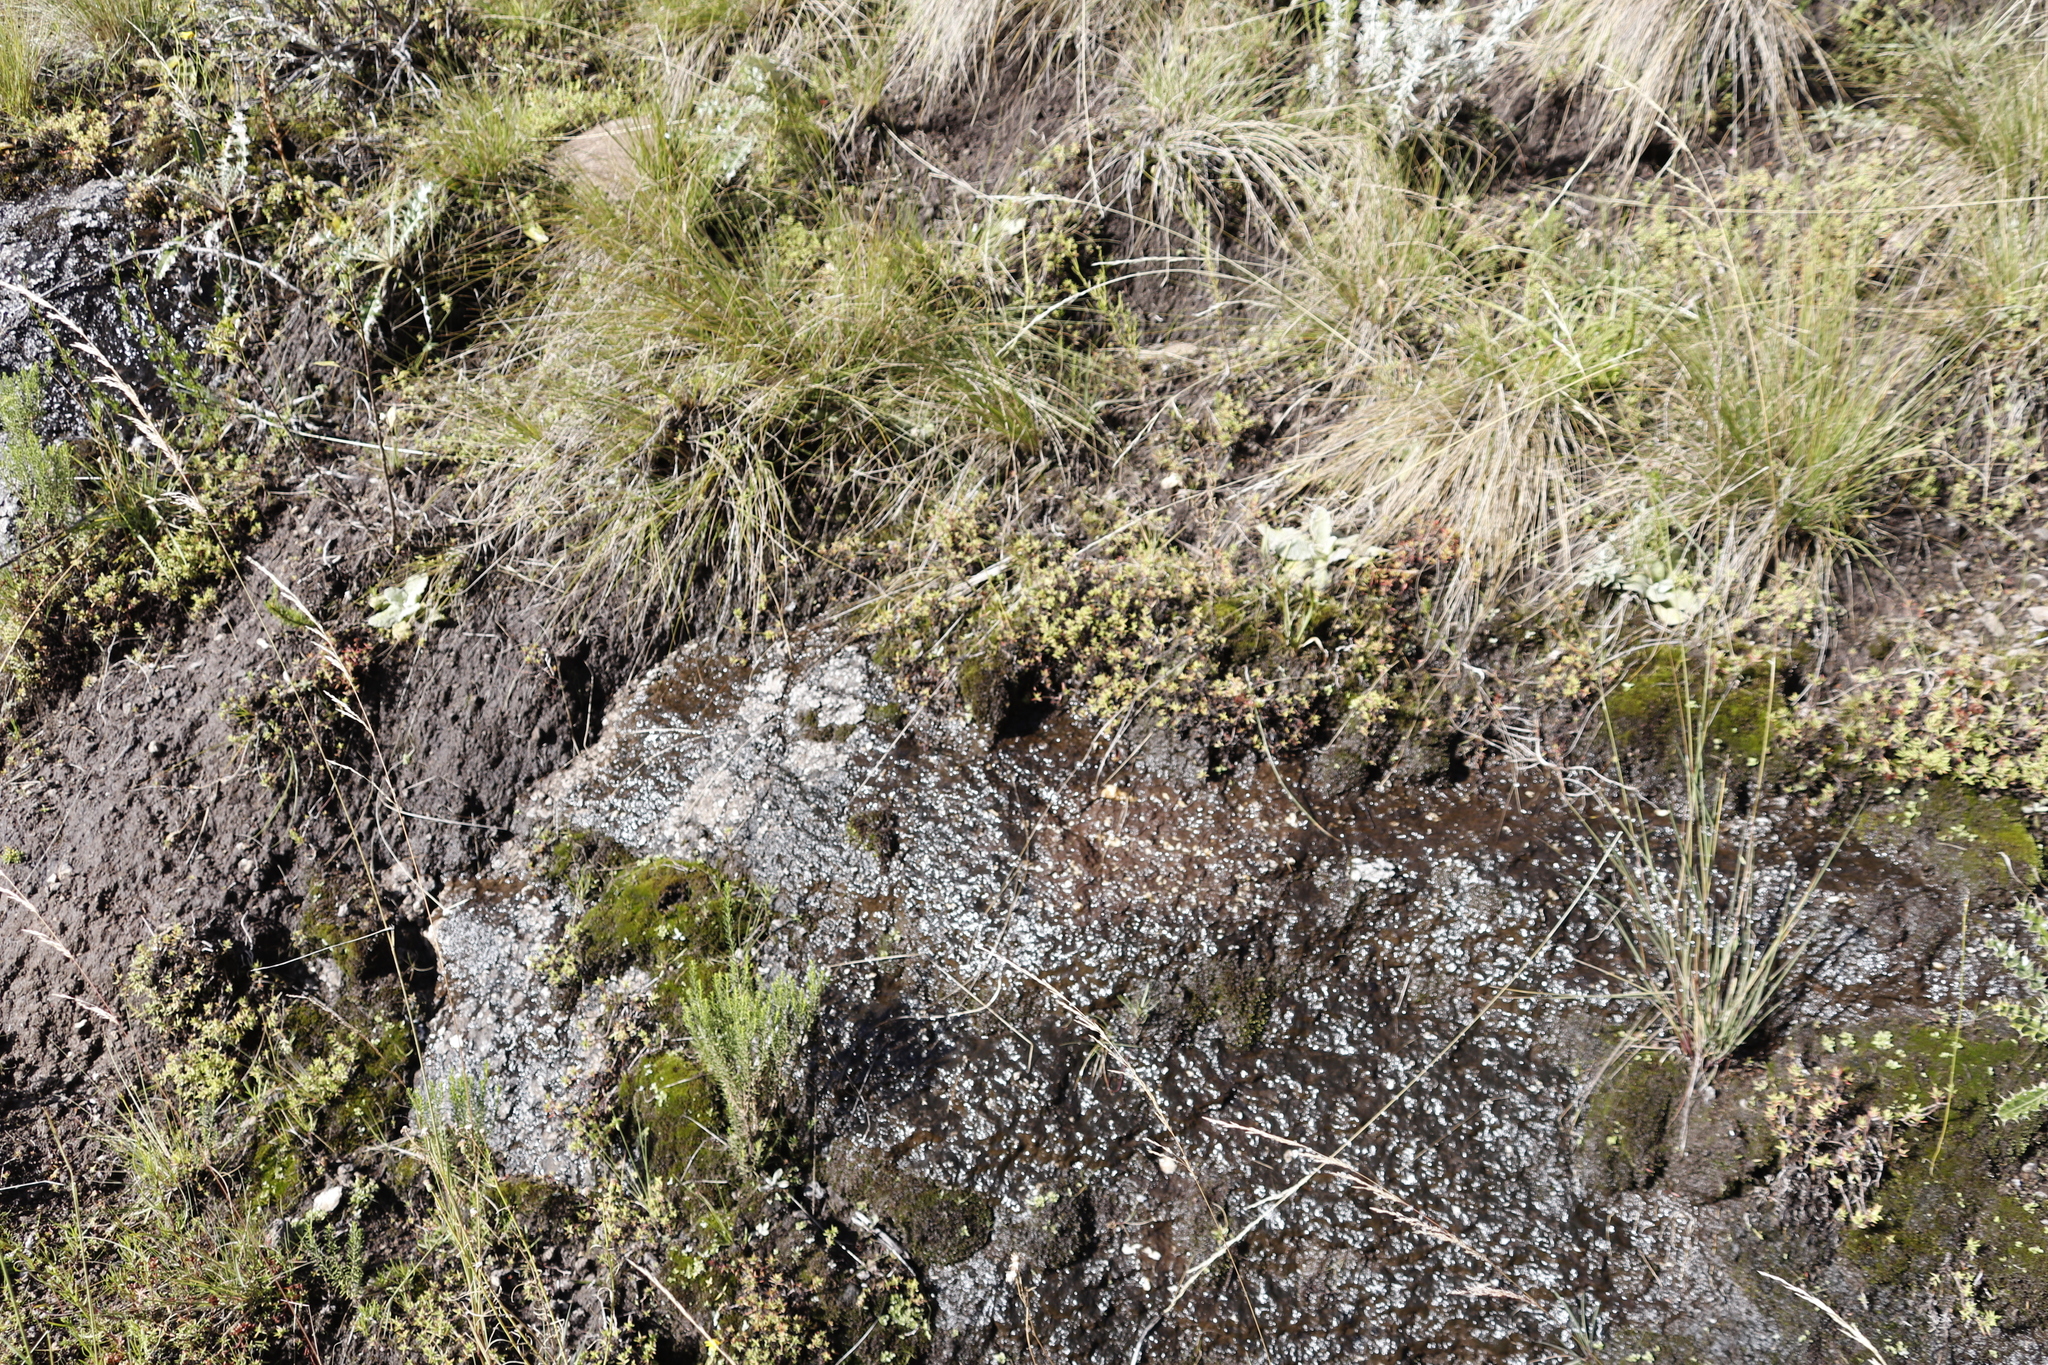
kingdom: Plantae
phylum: Tracheophyta
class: Magnoliopsida
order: Saxifragales
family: Crassulaceae
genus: Crassula
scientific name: Crassula dependens
